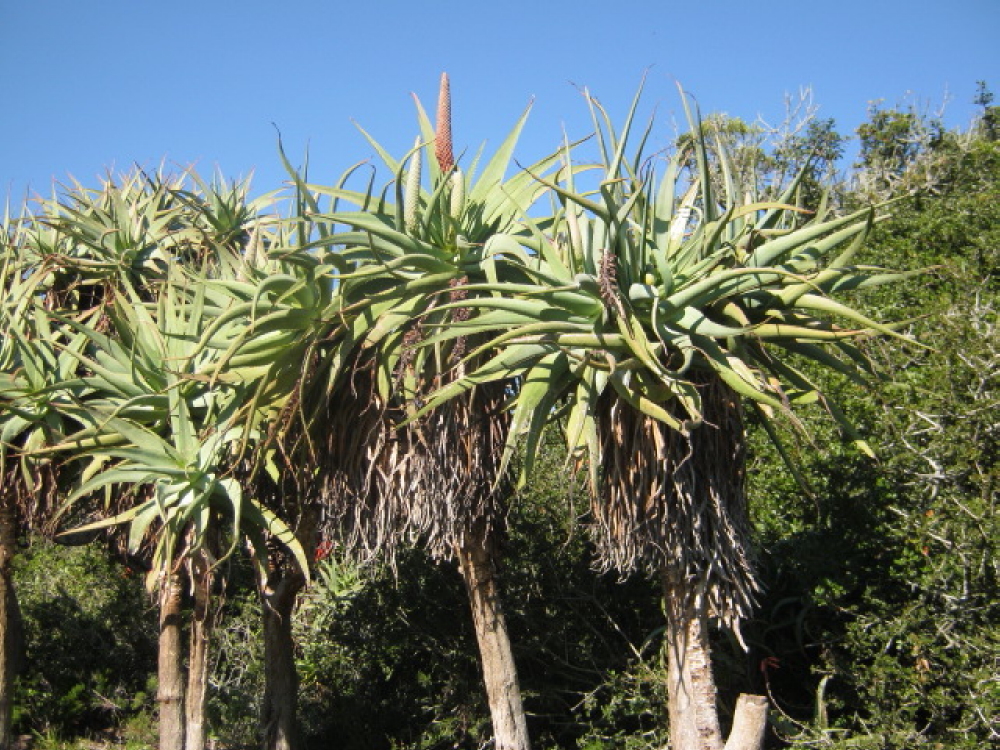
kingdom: Plantae
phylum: Tracheophyta
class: Liliopsida
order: Asparagales
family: Asphodelaceae
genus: Aloe
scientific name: Aloe speciosa
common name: Beautiful aloe
